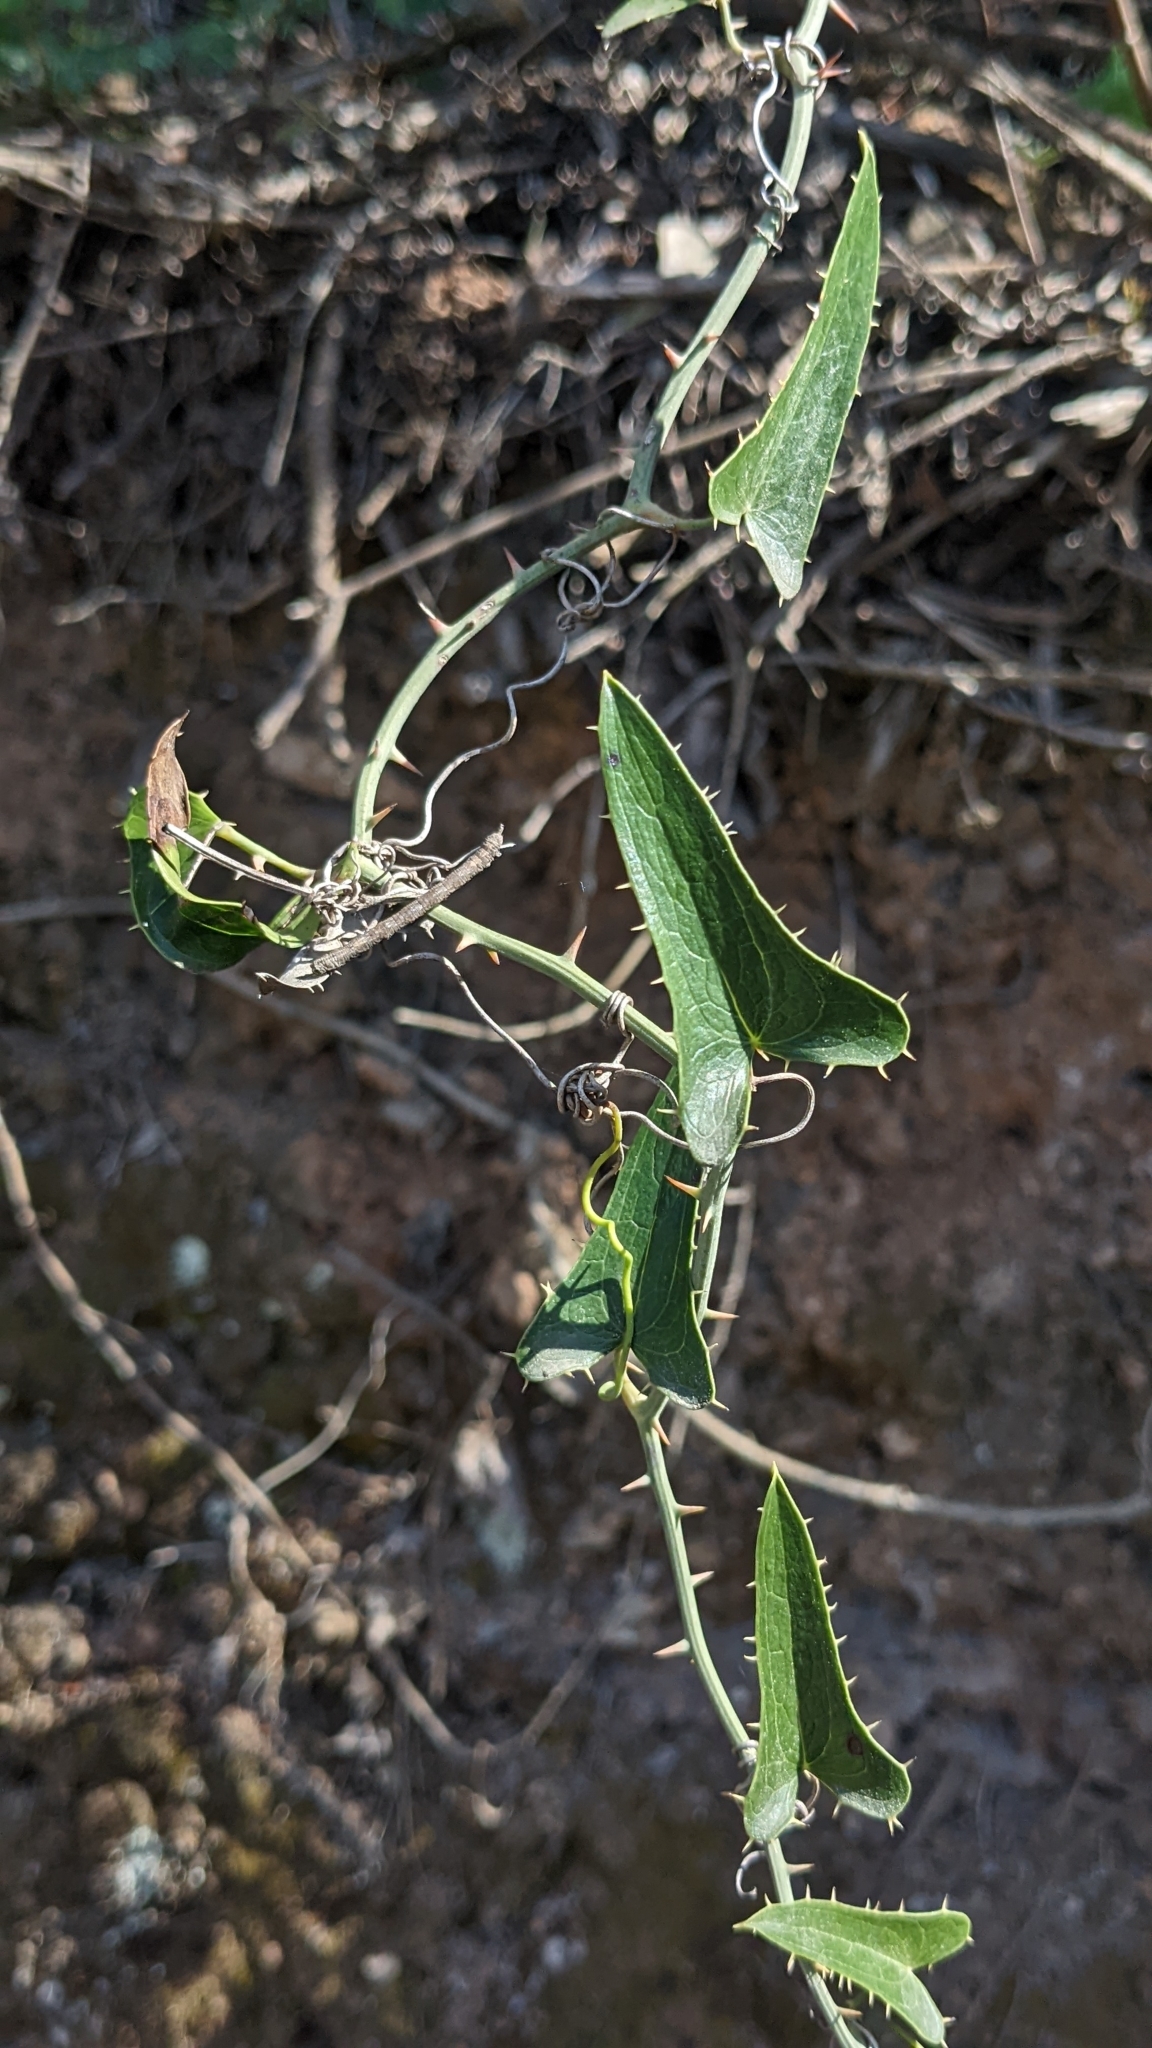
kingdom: Plantae
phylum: Tracheophyta
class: Liliopsida
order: Liliales
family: Smilacaceae
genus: Smilax
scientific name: Smilax aspera
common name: Common smilax
